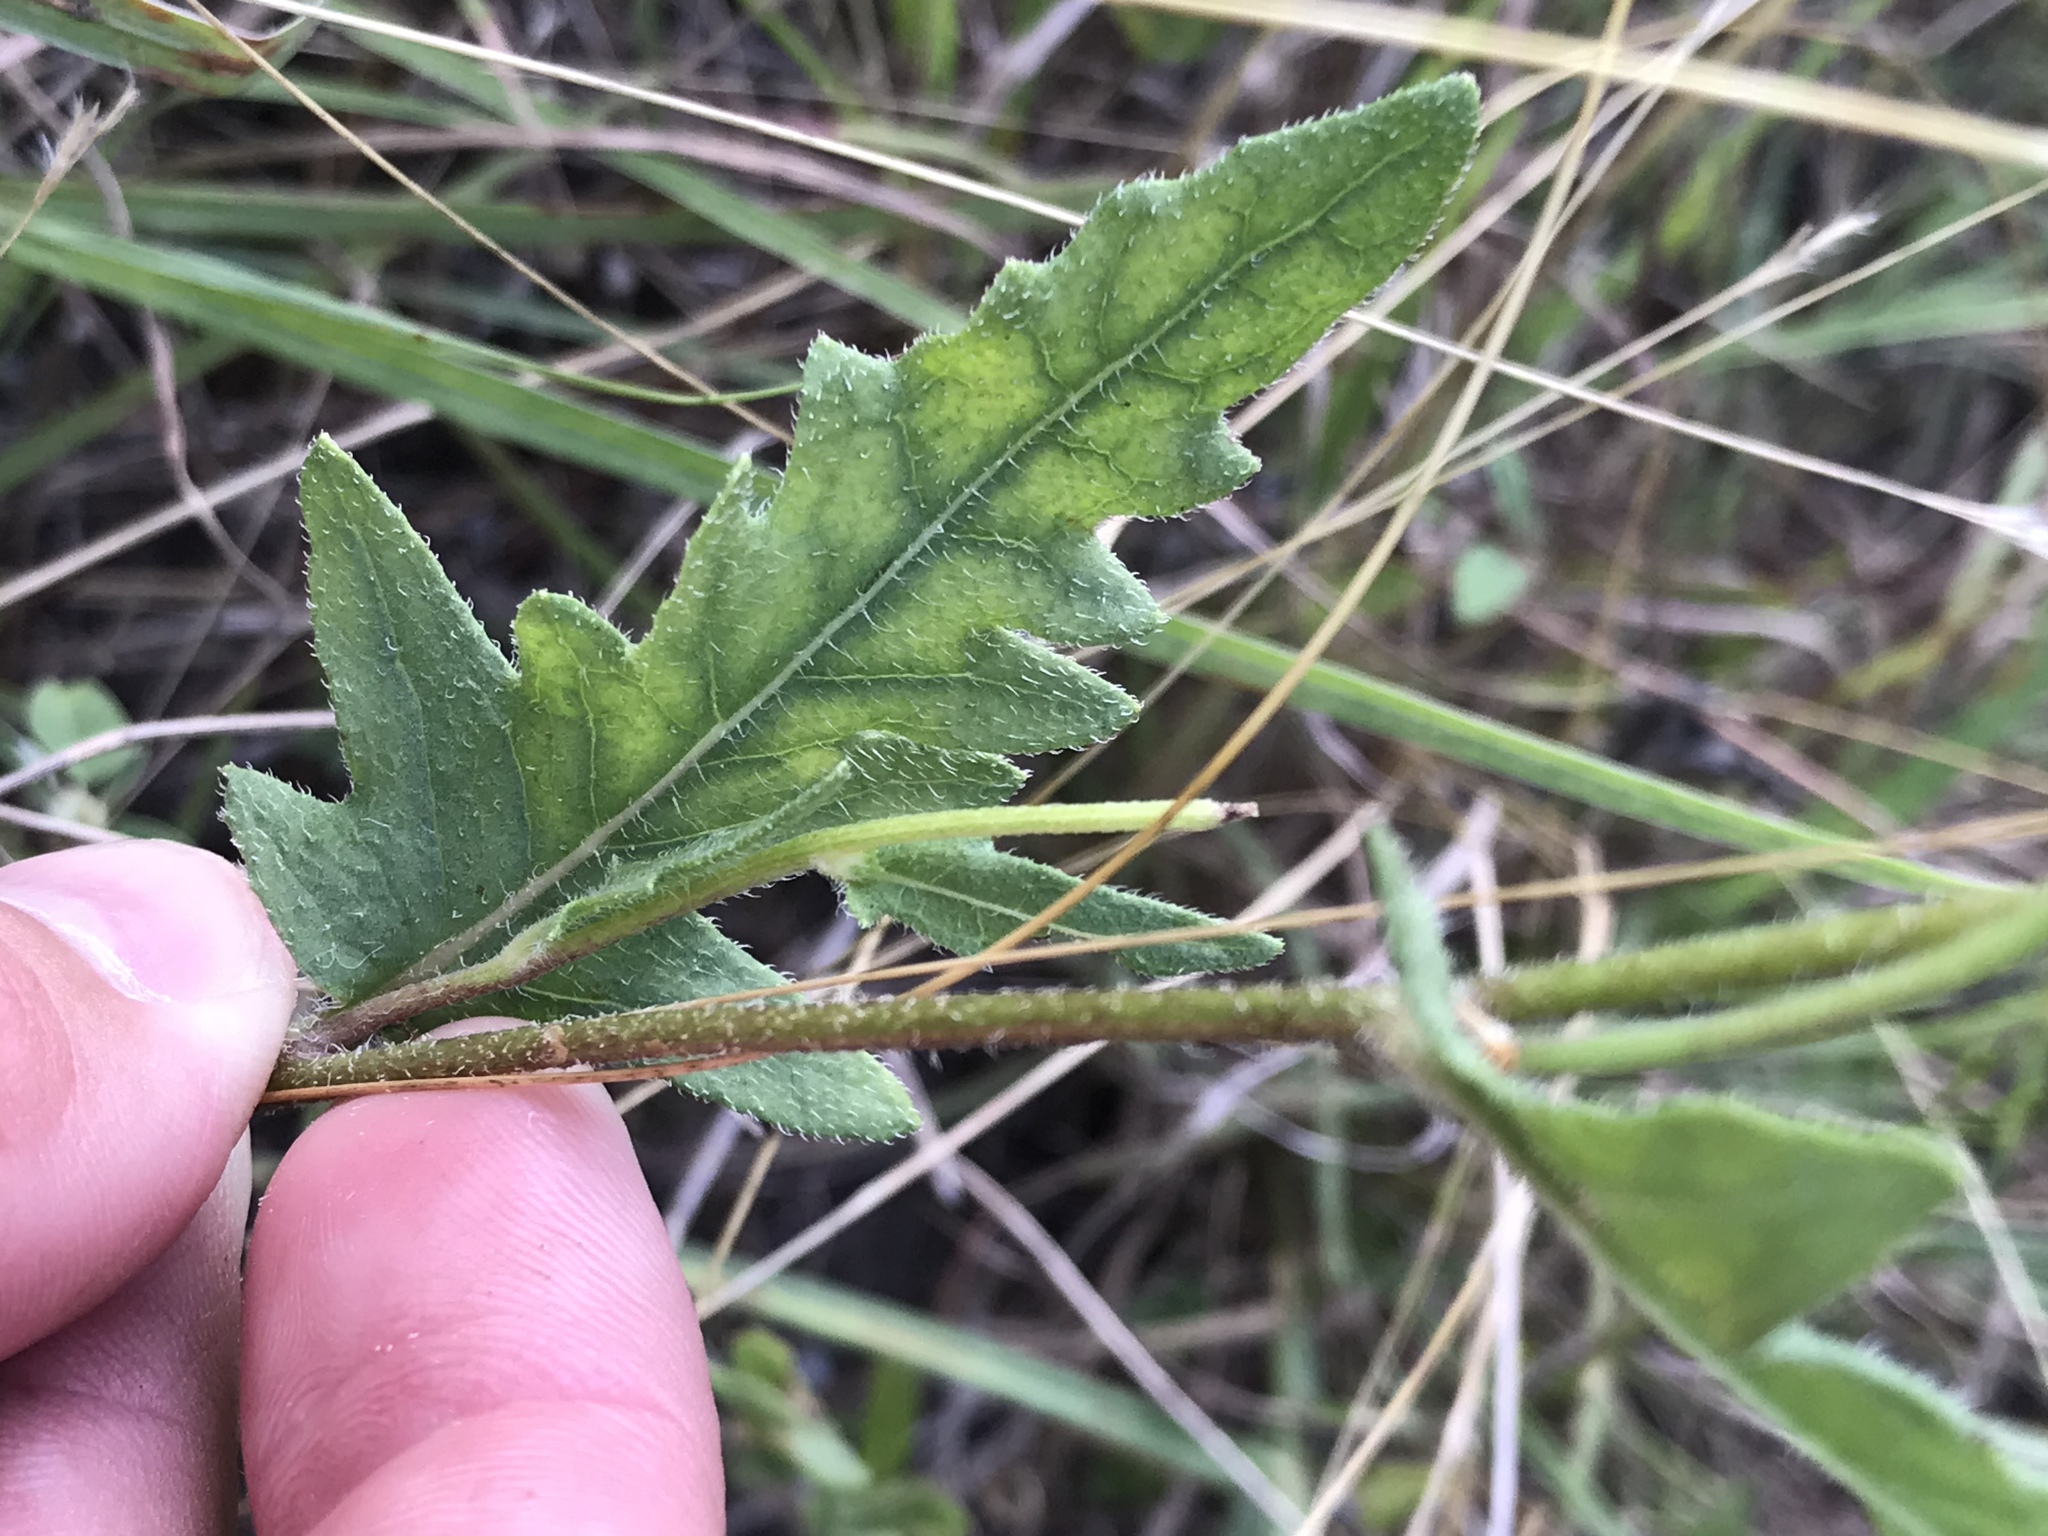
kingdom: Plantae
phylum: Tracheophyta
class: Magnoliopsida
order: Asterales
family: Asteraceae
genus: Engelmannia
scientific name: Engelmannia peristenia
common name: Engelmann's daisy
